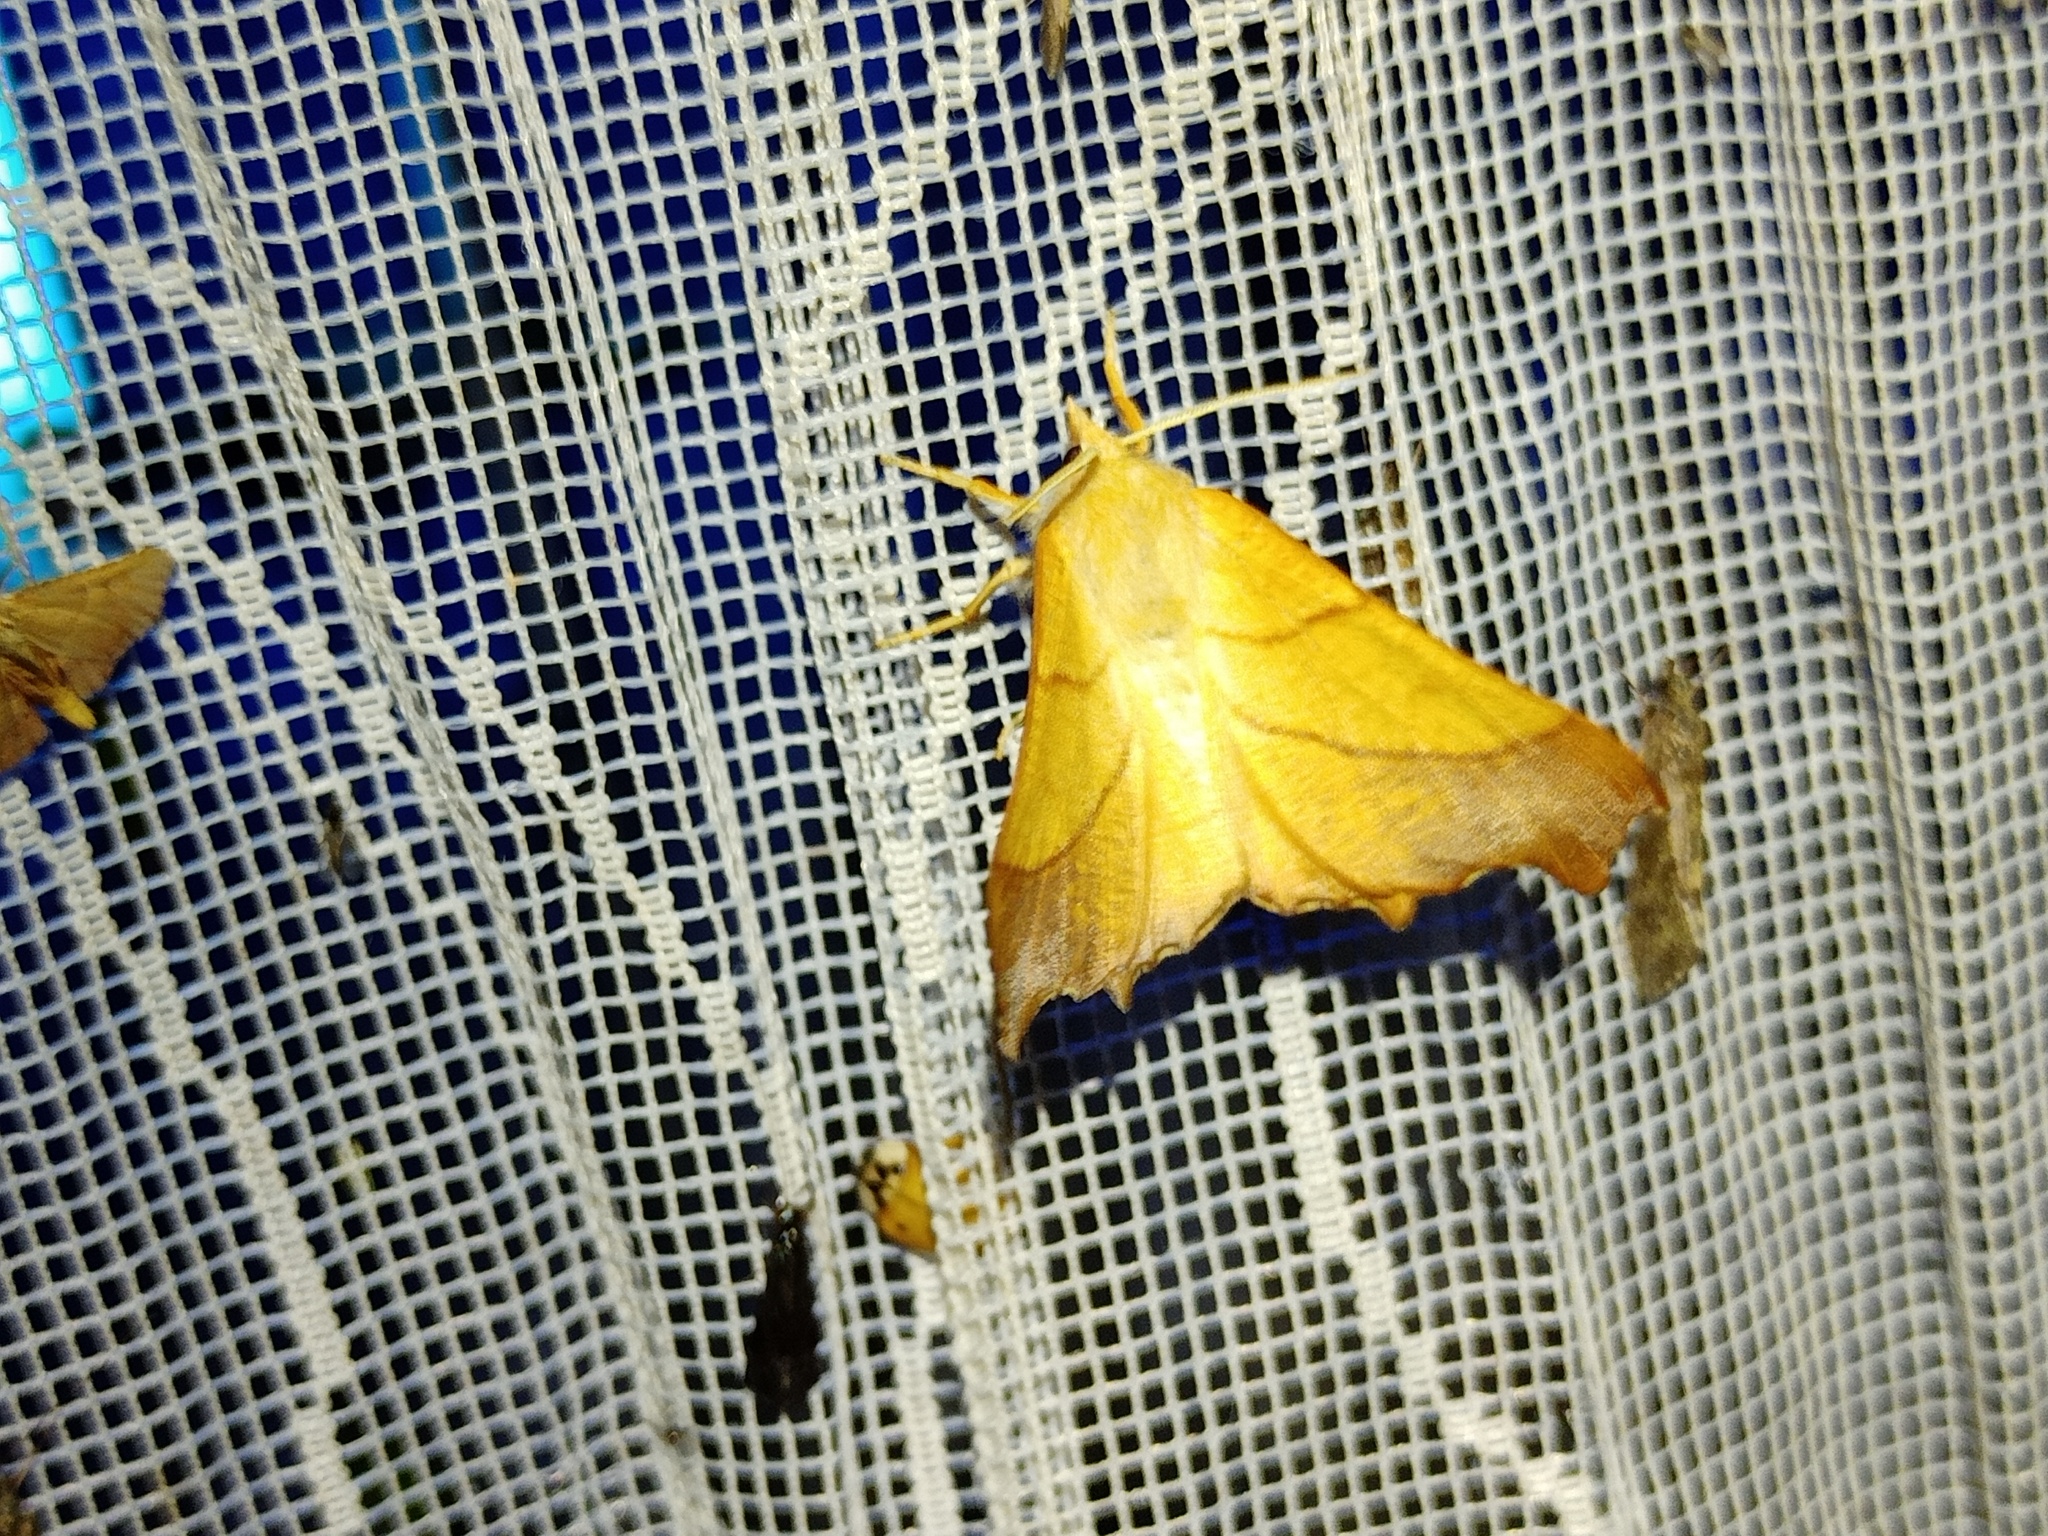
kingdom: Animalia
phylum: Arthropoda
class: Insecta
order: Lepidoptera
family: Geometridae
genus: Ennomos
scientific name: Ennomos fuscantaria
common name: Dusky thorn
